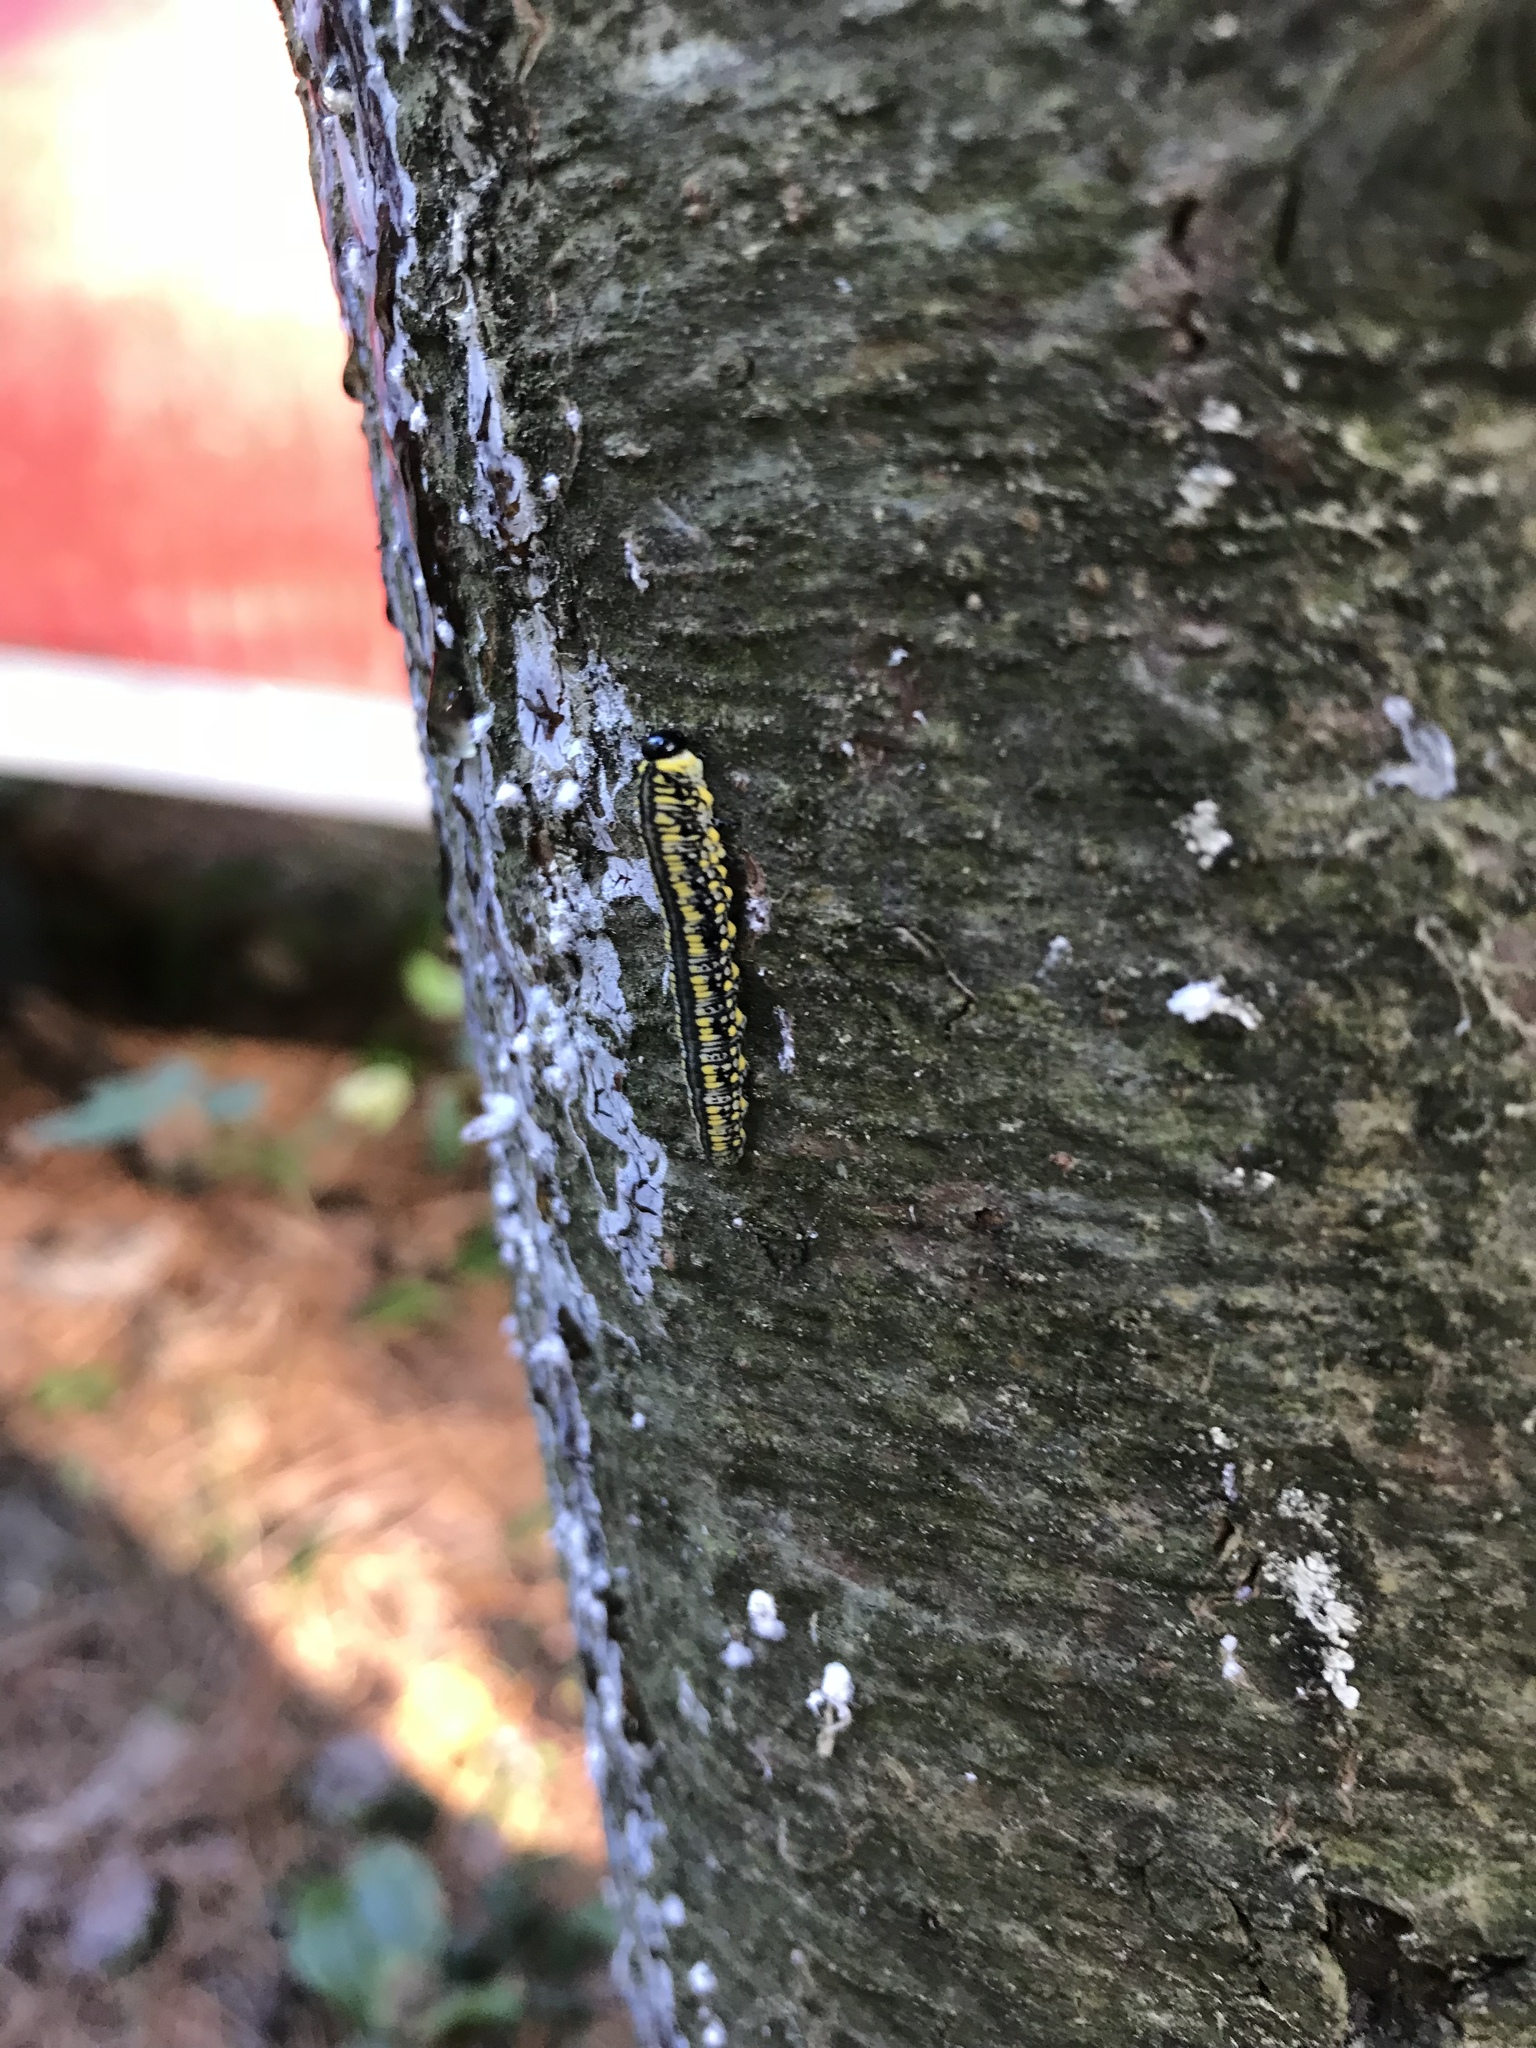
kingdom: Animalia
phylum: Arthropoda
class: Insecta
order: Hymenoptera
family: Diprionidae
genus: Diprion
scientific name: Diprion similis
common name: Pine sawfly
